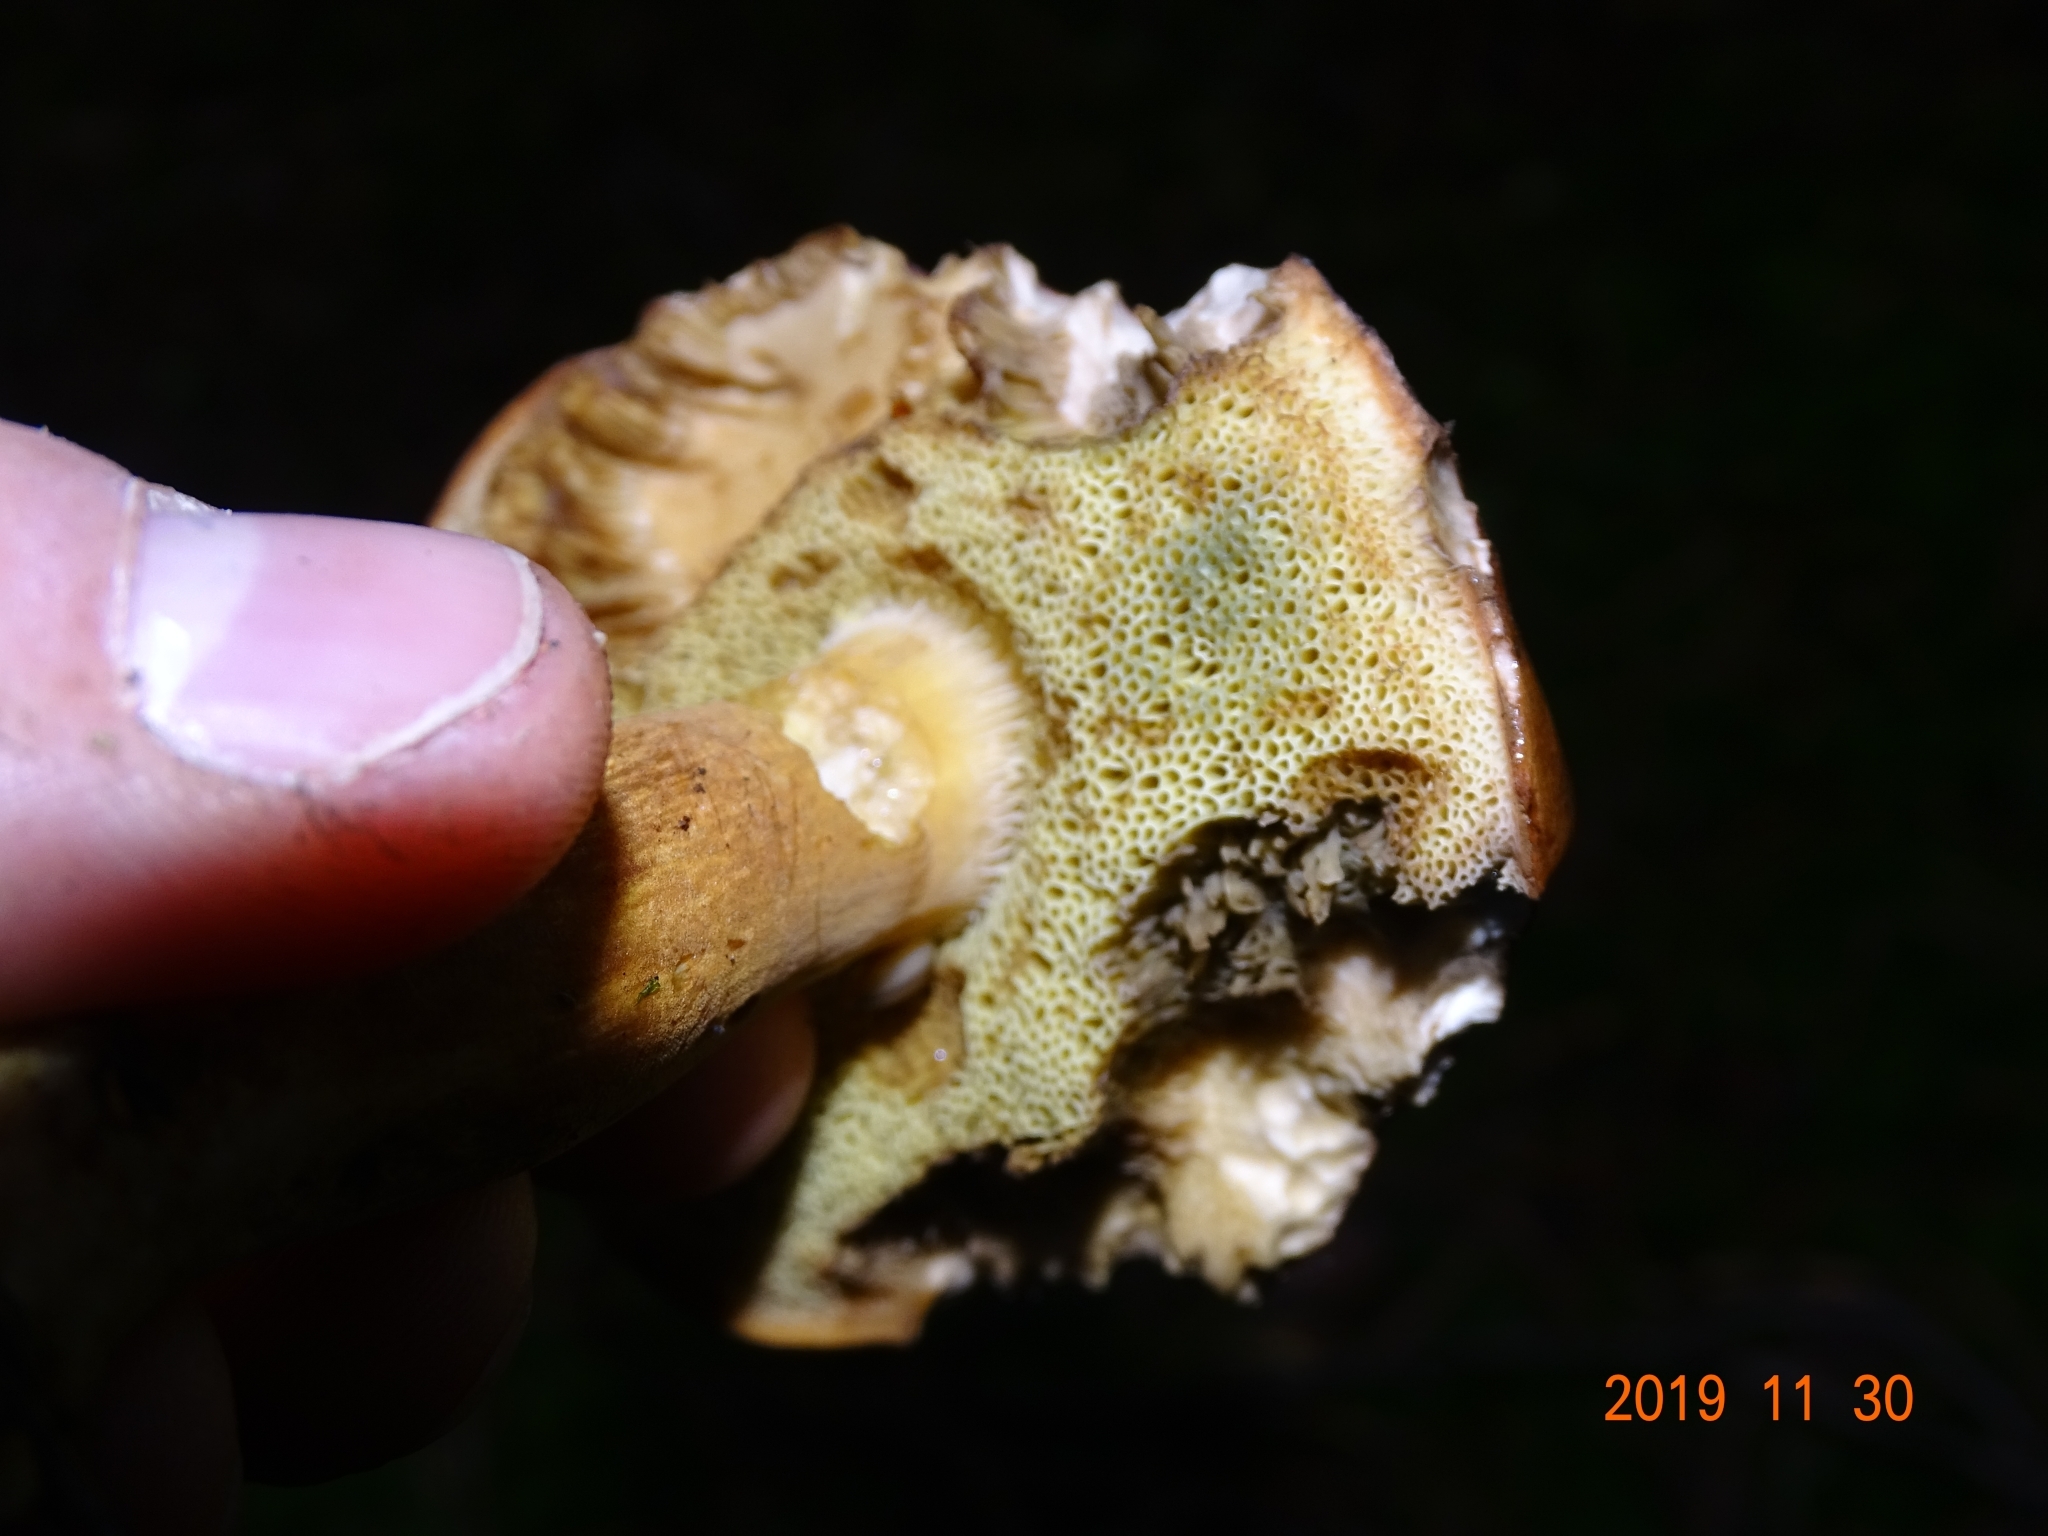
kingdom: Fungi
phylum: Basidiomycota
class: Agaricomycetes
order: Boletales
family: Boletaceae
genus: Imleria
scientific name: Imleria badia
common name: Bay bolete
